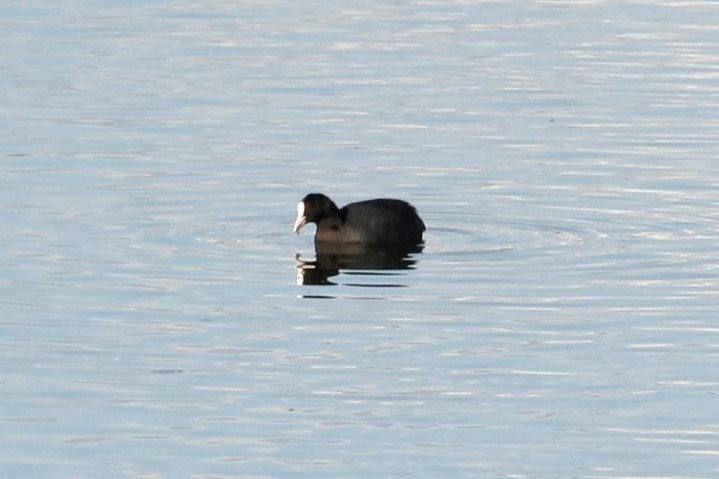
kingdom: Animalia
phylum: Chordata
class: Aves
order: Gruiformes
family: Rallidae
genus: Fulica
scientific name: Fulica atra
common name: Eurasian coot
